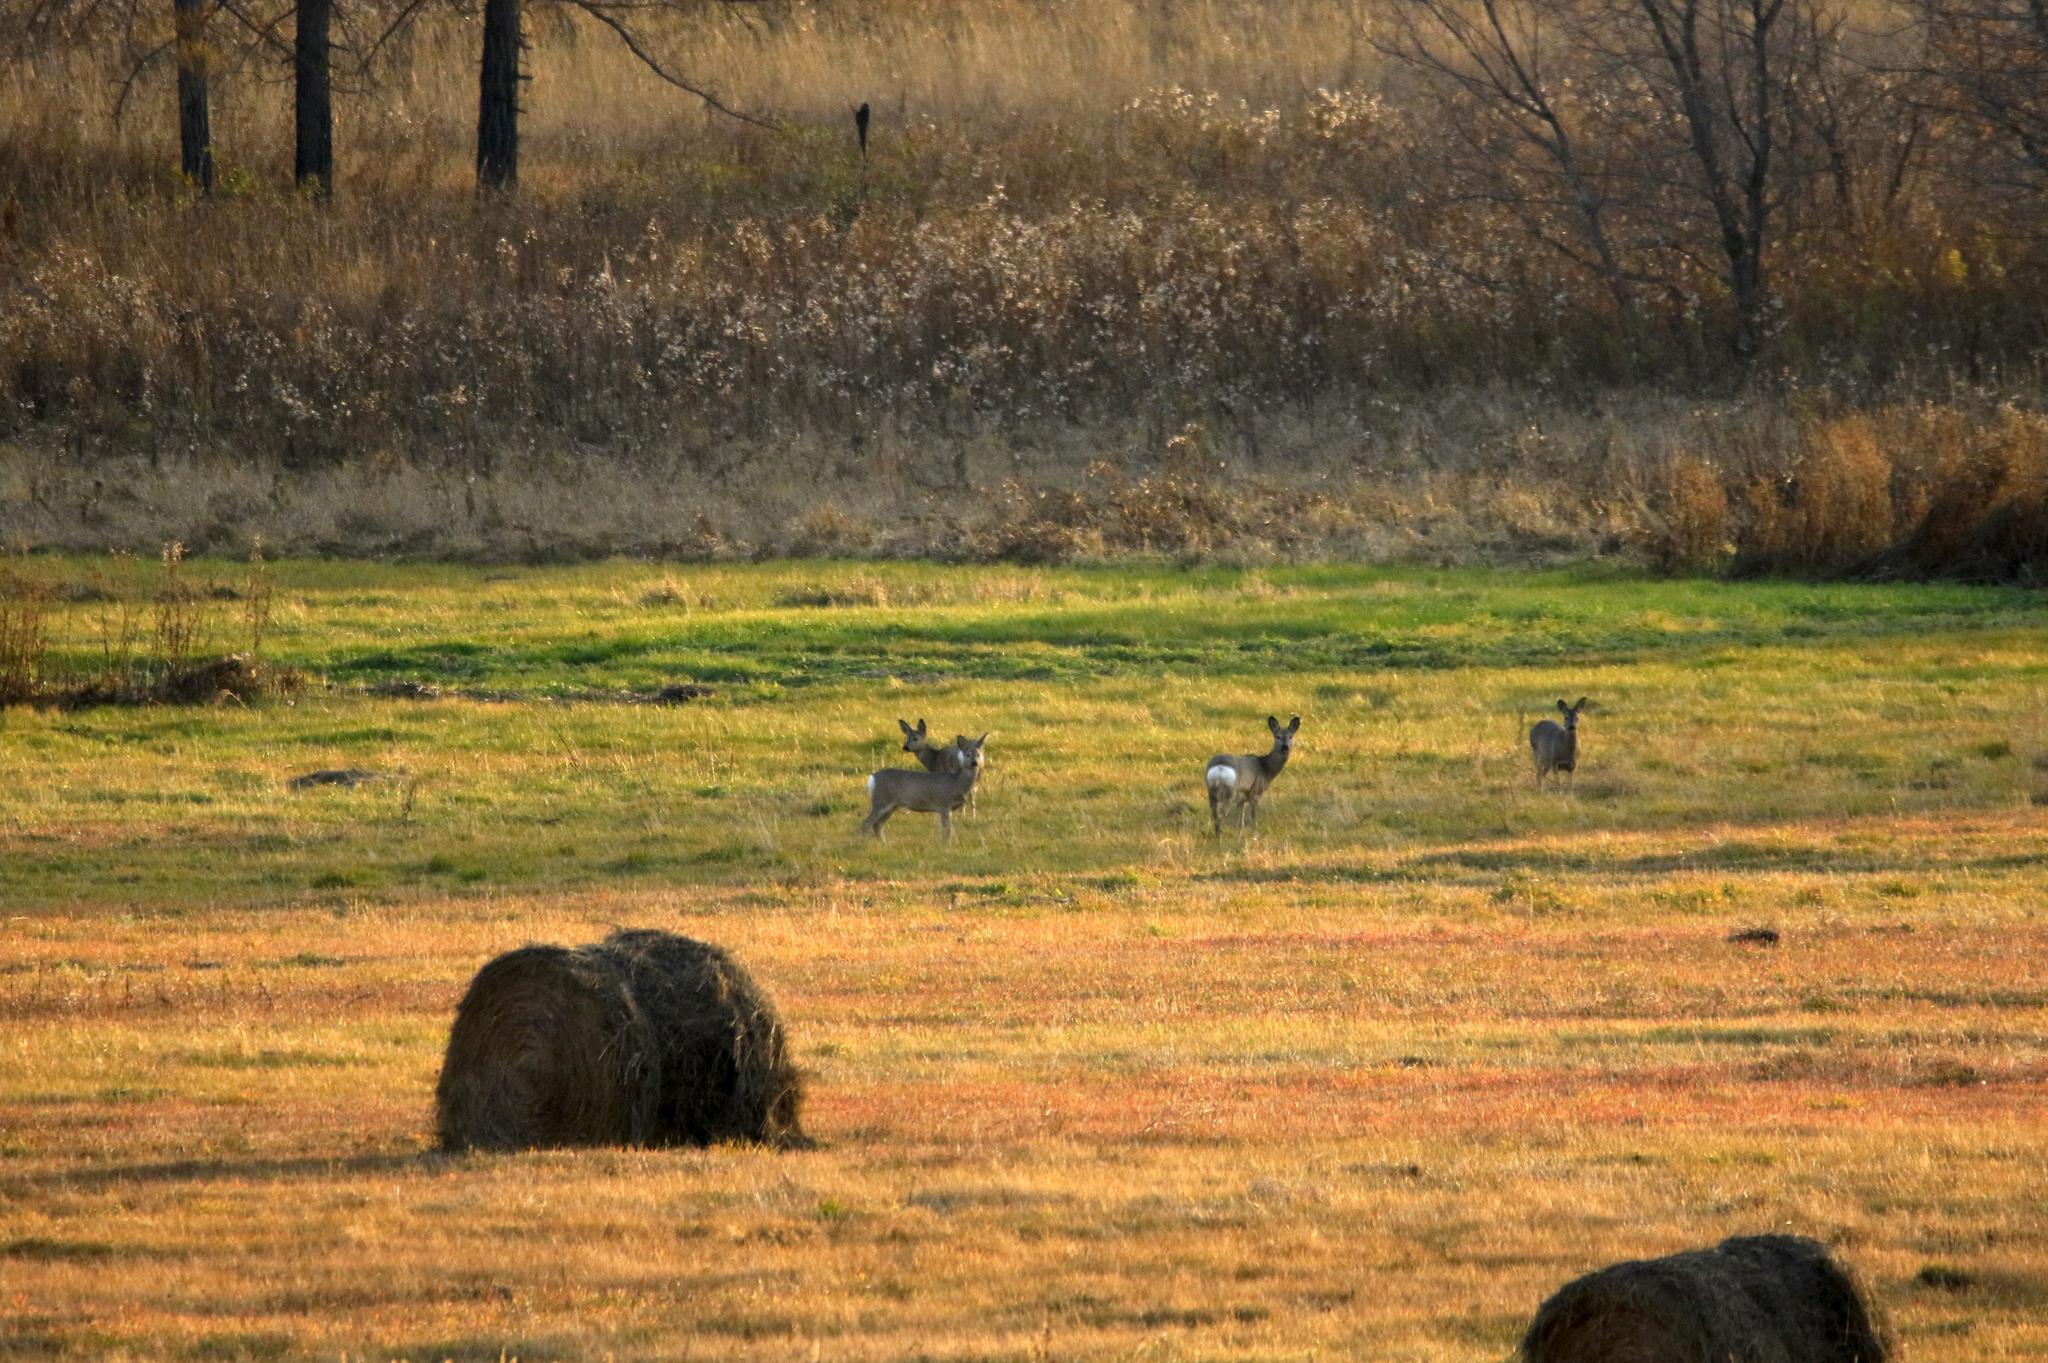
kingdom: Animalia
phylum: Chordata
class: Mammalia
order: Artiodactyla
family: Cervidae
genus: Capreolus
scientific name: Capreolus pygargus
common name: Siberian roe
